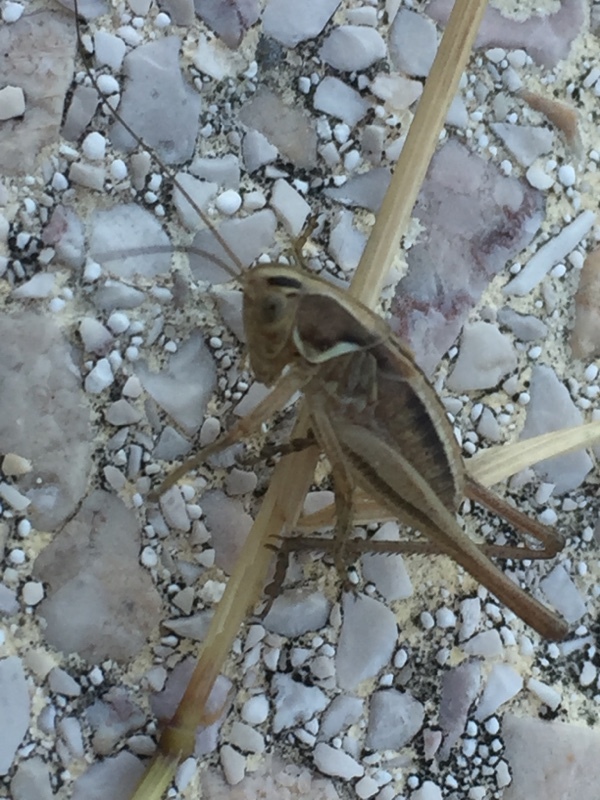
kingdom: Animalia
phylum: Arthropoda
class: Insecta
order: Orthoptera
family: Tettigoniidae
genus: Tessellana
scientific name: Tessellana tessellata
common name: Grasshopper
